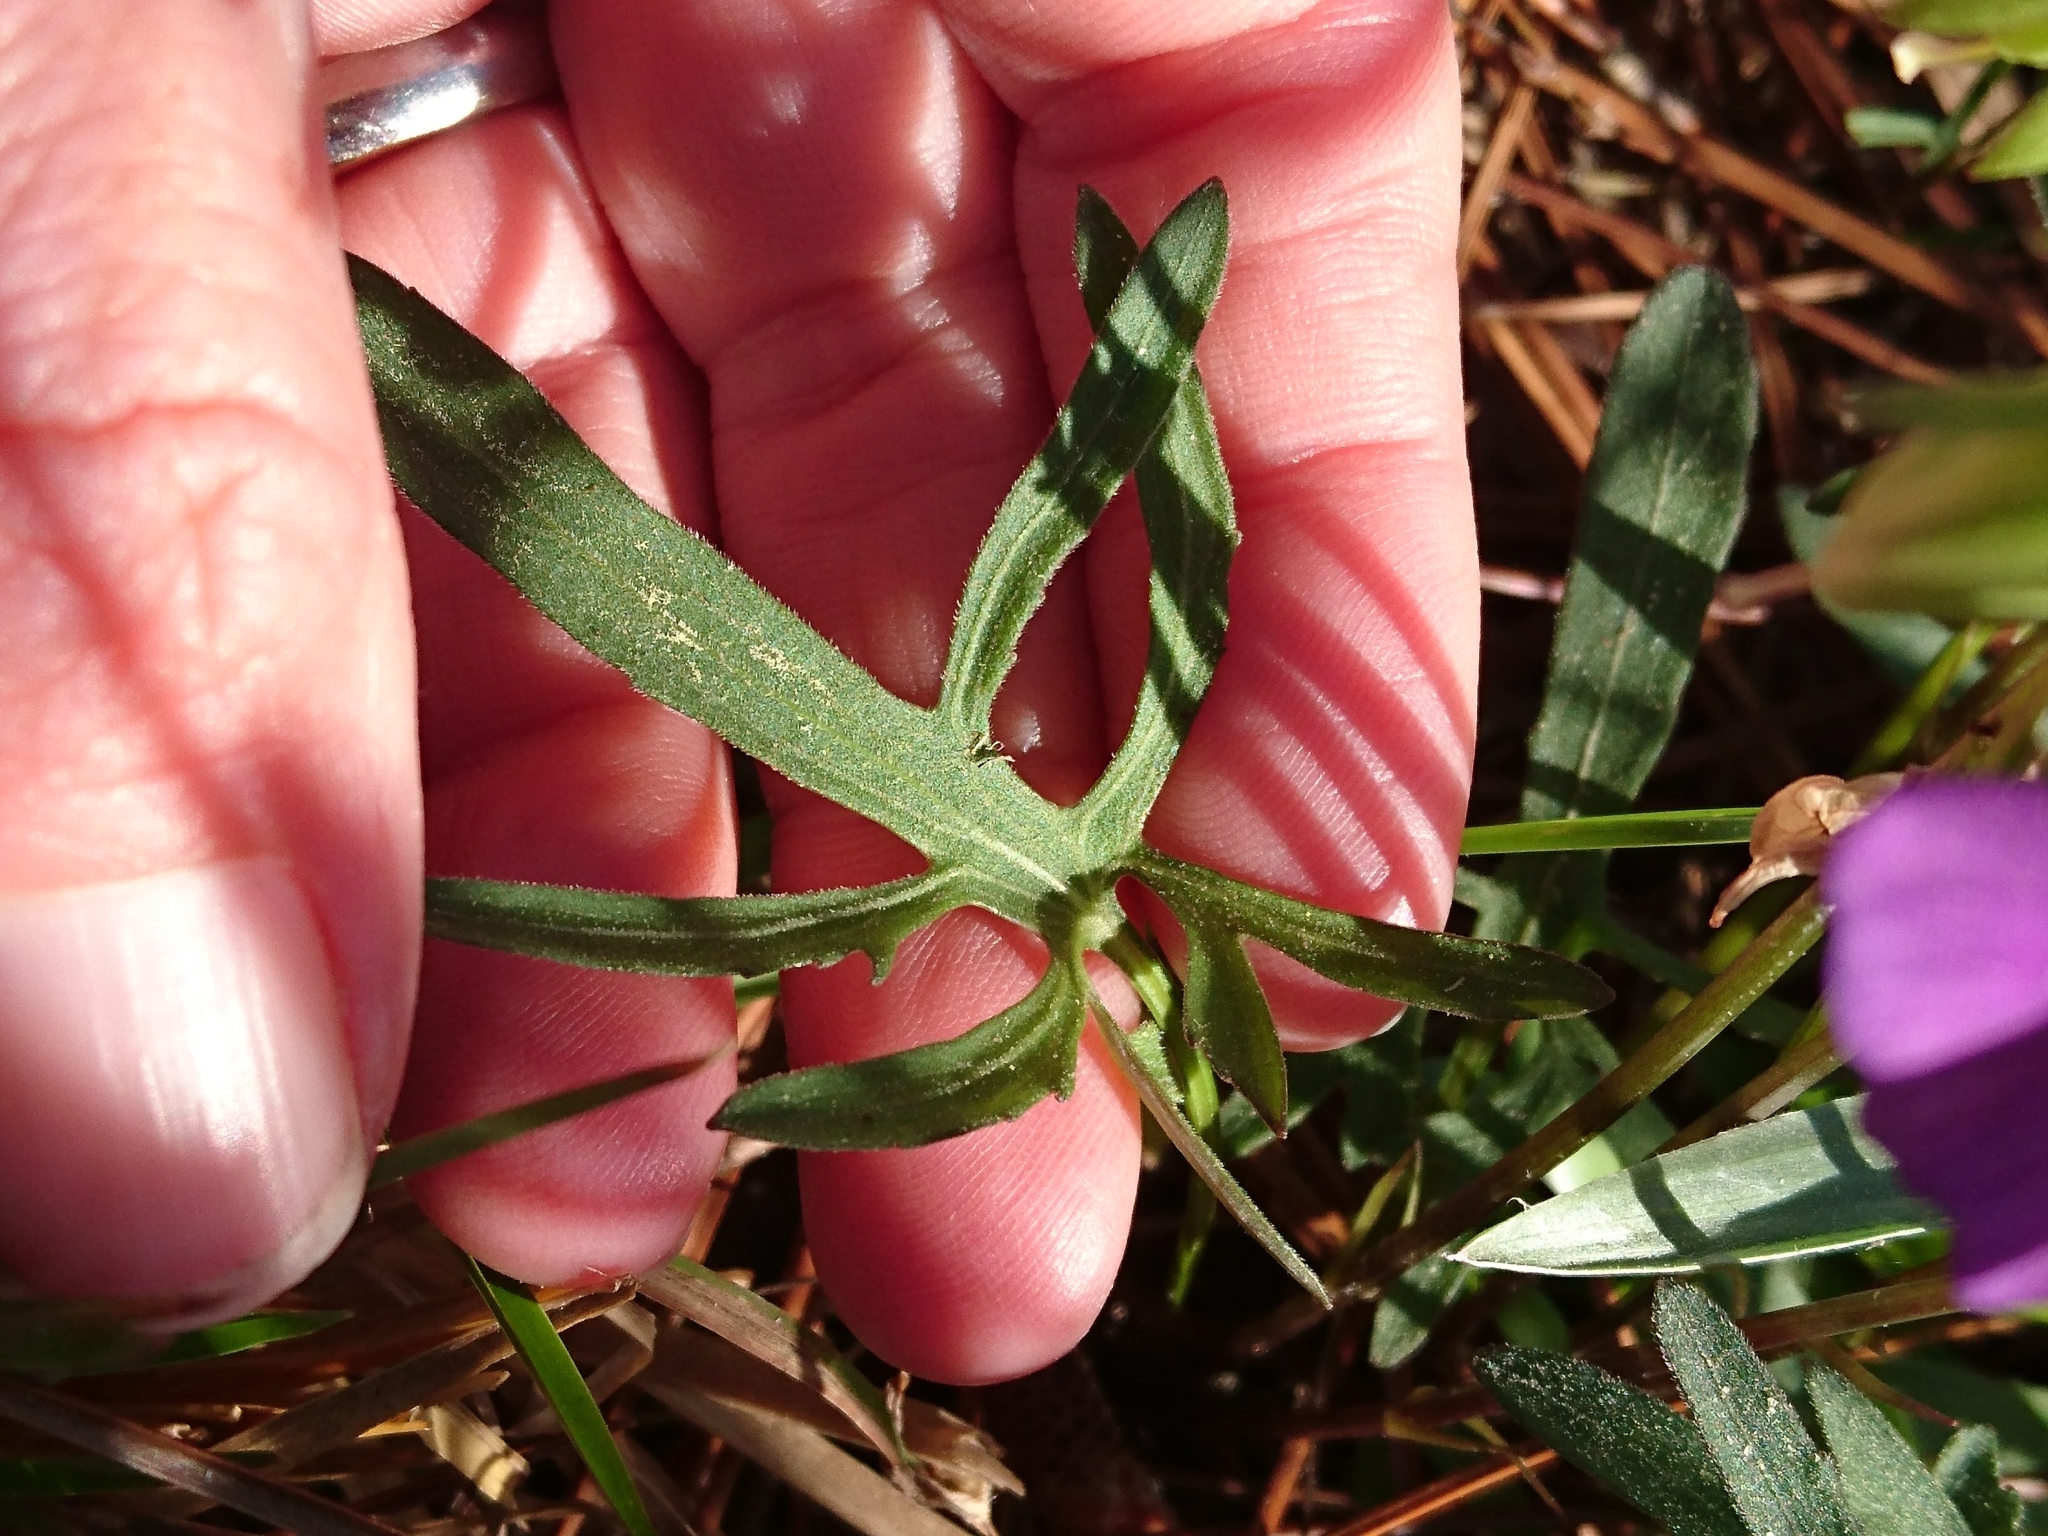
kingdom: Plantae
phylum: Tracheophyta
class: Magnoliopsida
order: Malpighiales
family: Violaceae
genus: Viola
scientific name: Viola septemloba
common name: Southern coast violet
